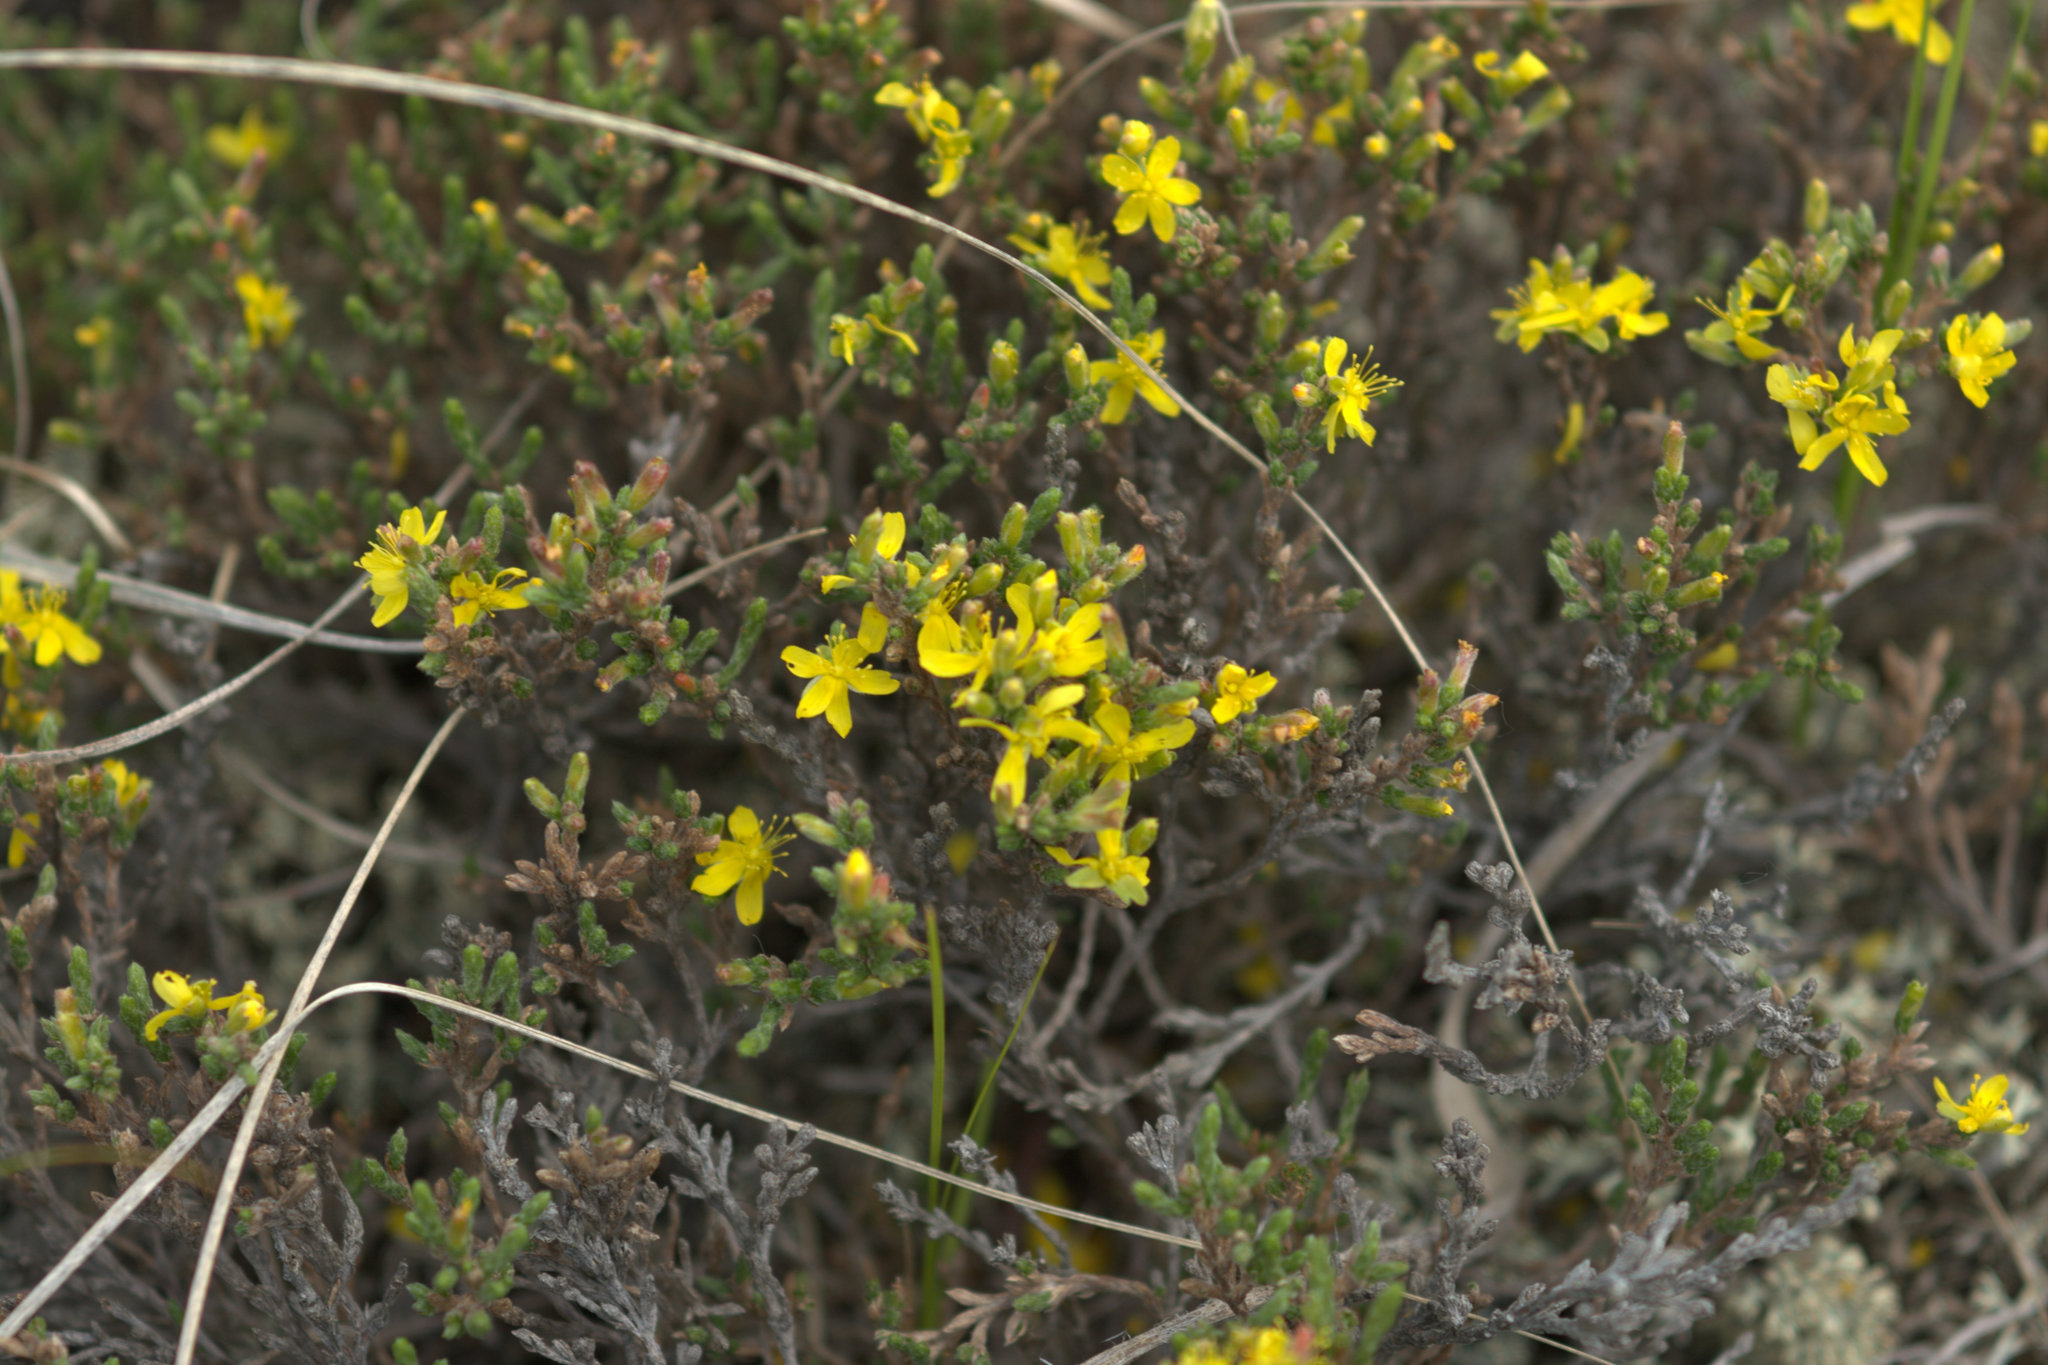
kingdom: Plantae
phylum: Tracheophyta
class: Magnoliopsida
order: Malvales
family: Cistaceae
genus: Hudsonia
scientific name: Hudsonia tomentosa
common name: Beach-heath
